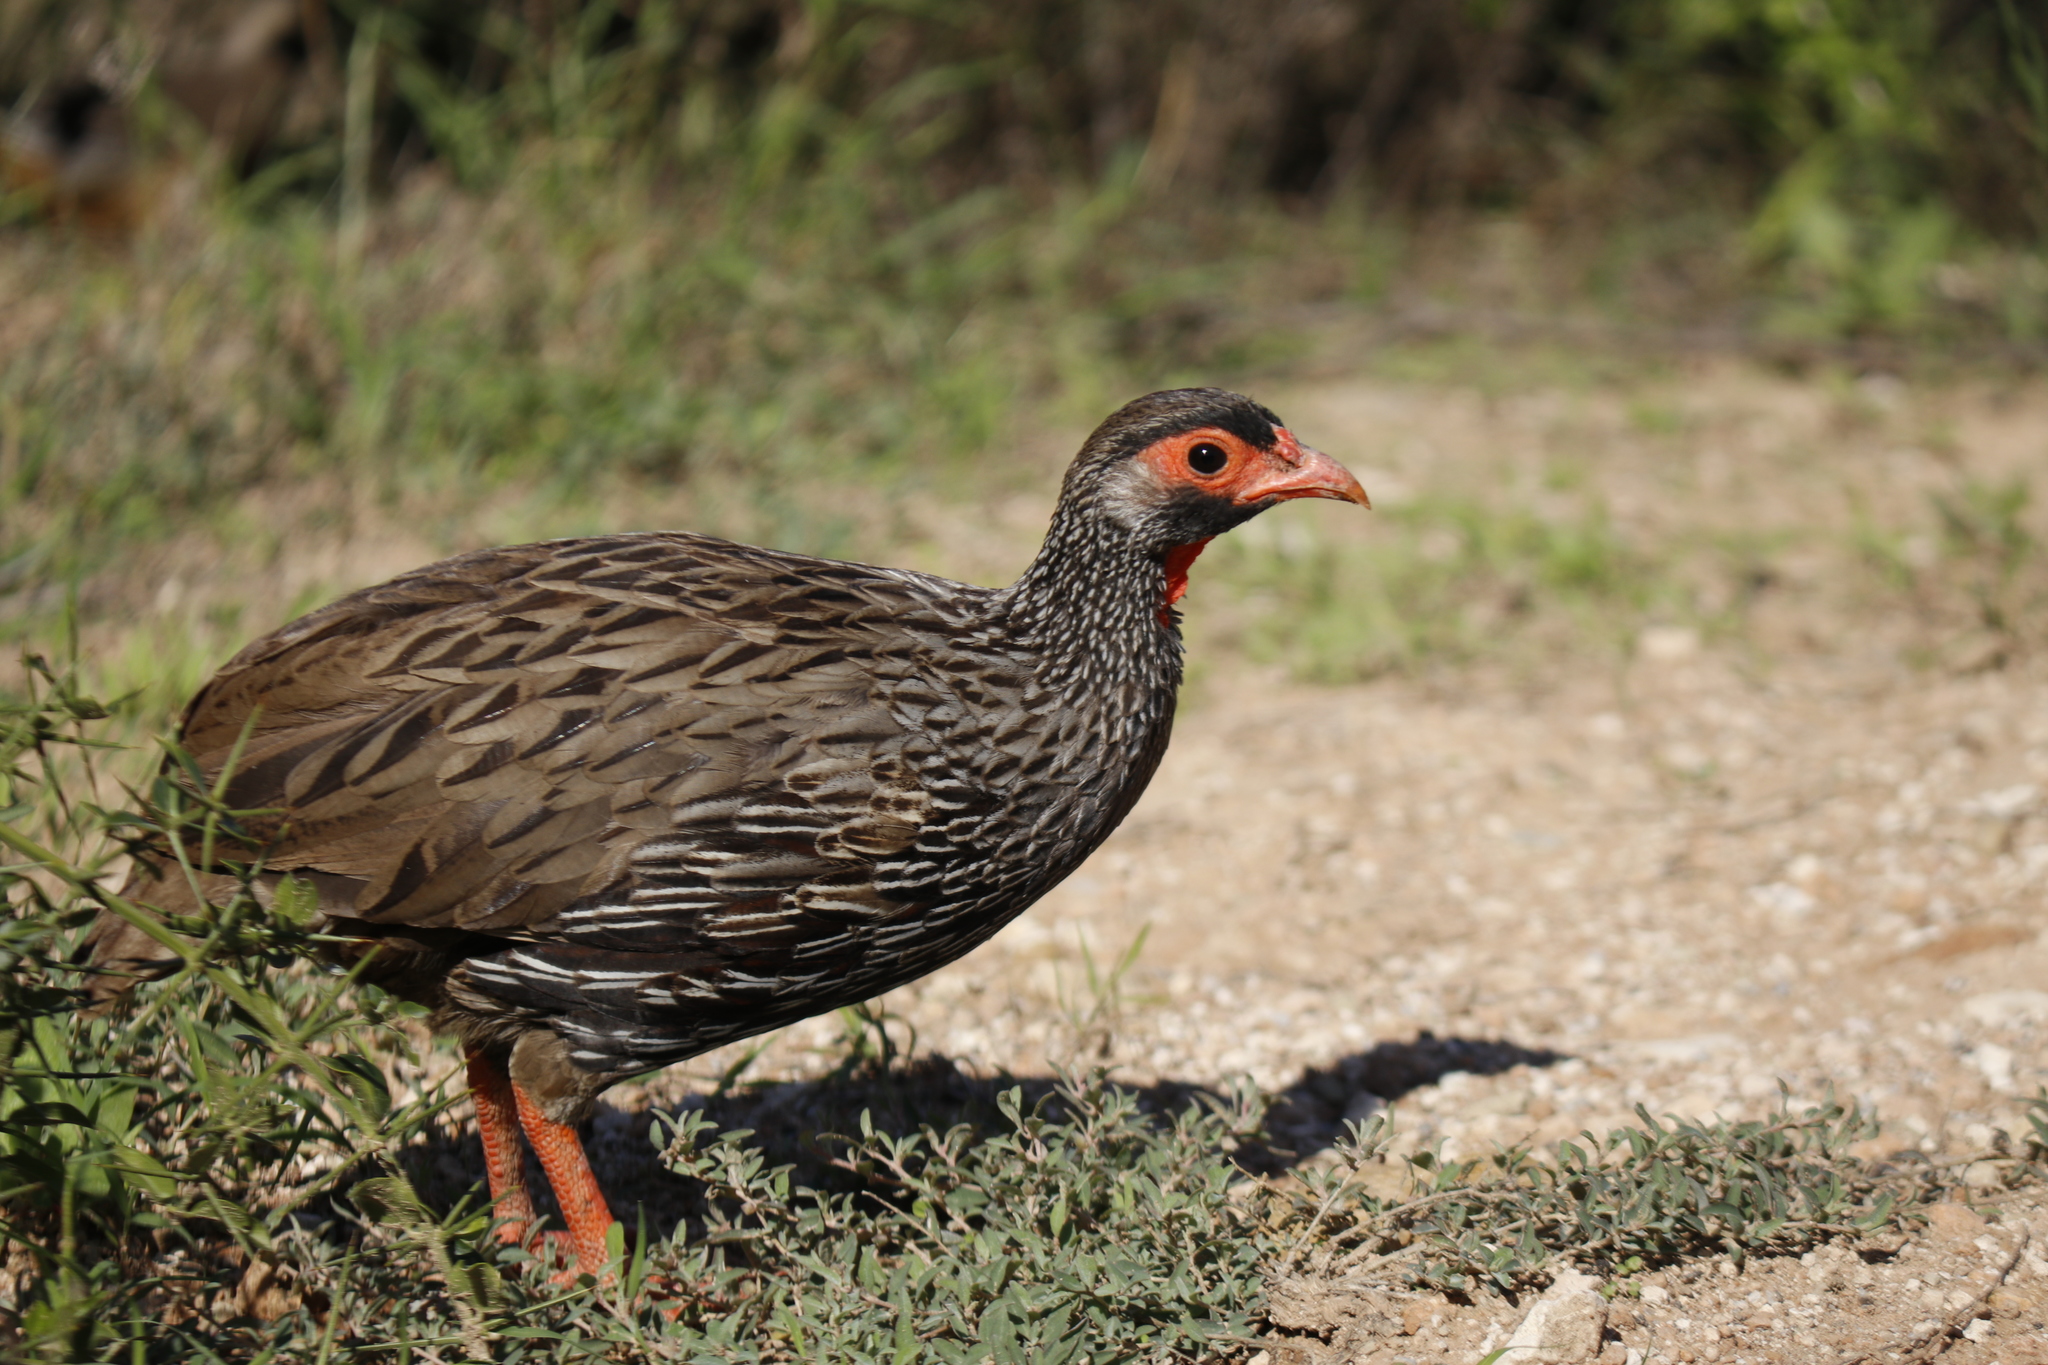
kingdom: Animalia
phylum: Chordata
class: Aves
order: Galliformes
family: Phasianidae
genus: Pternistis
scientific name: Pternistis afer
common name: Red-necked spurfowl
